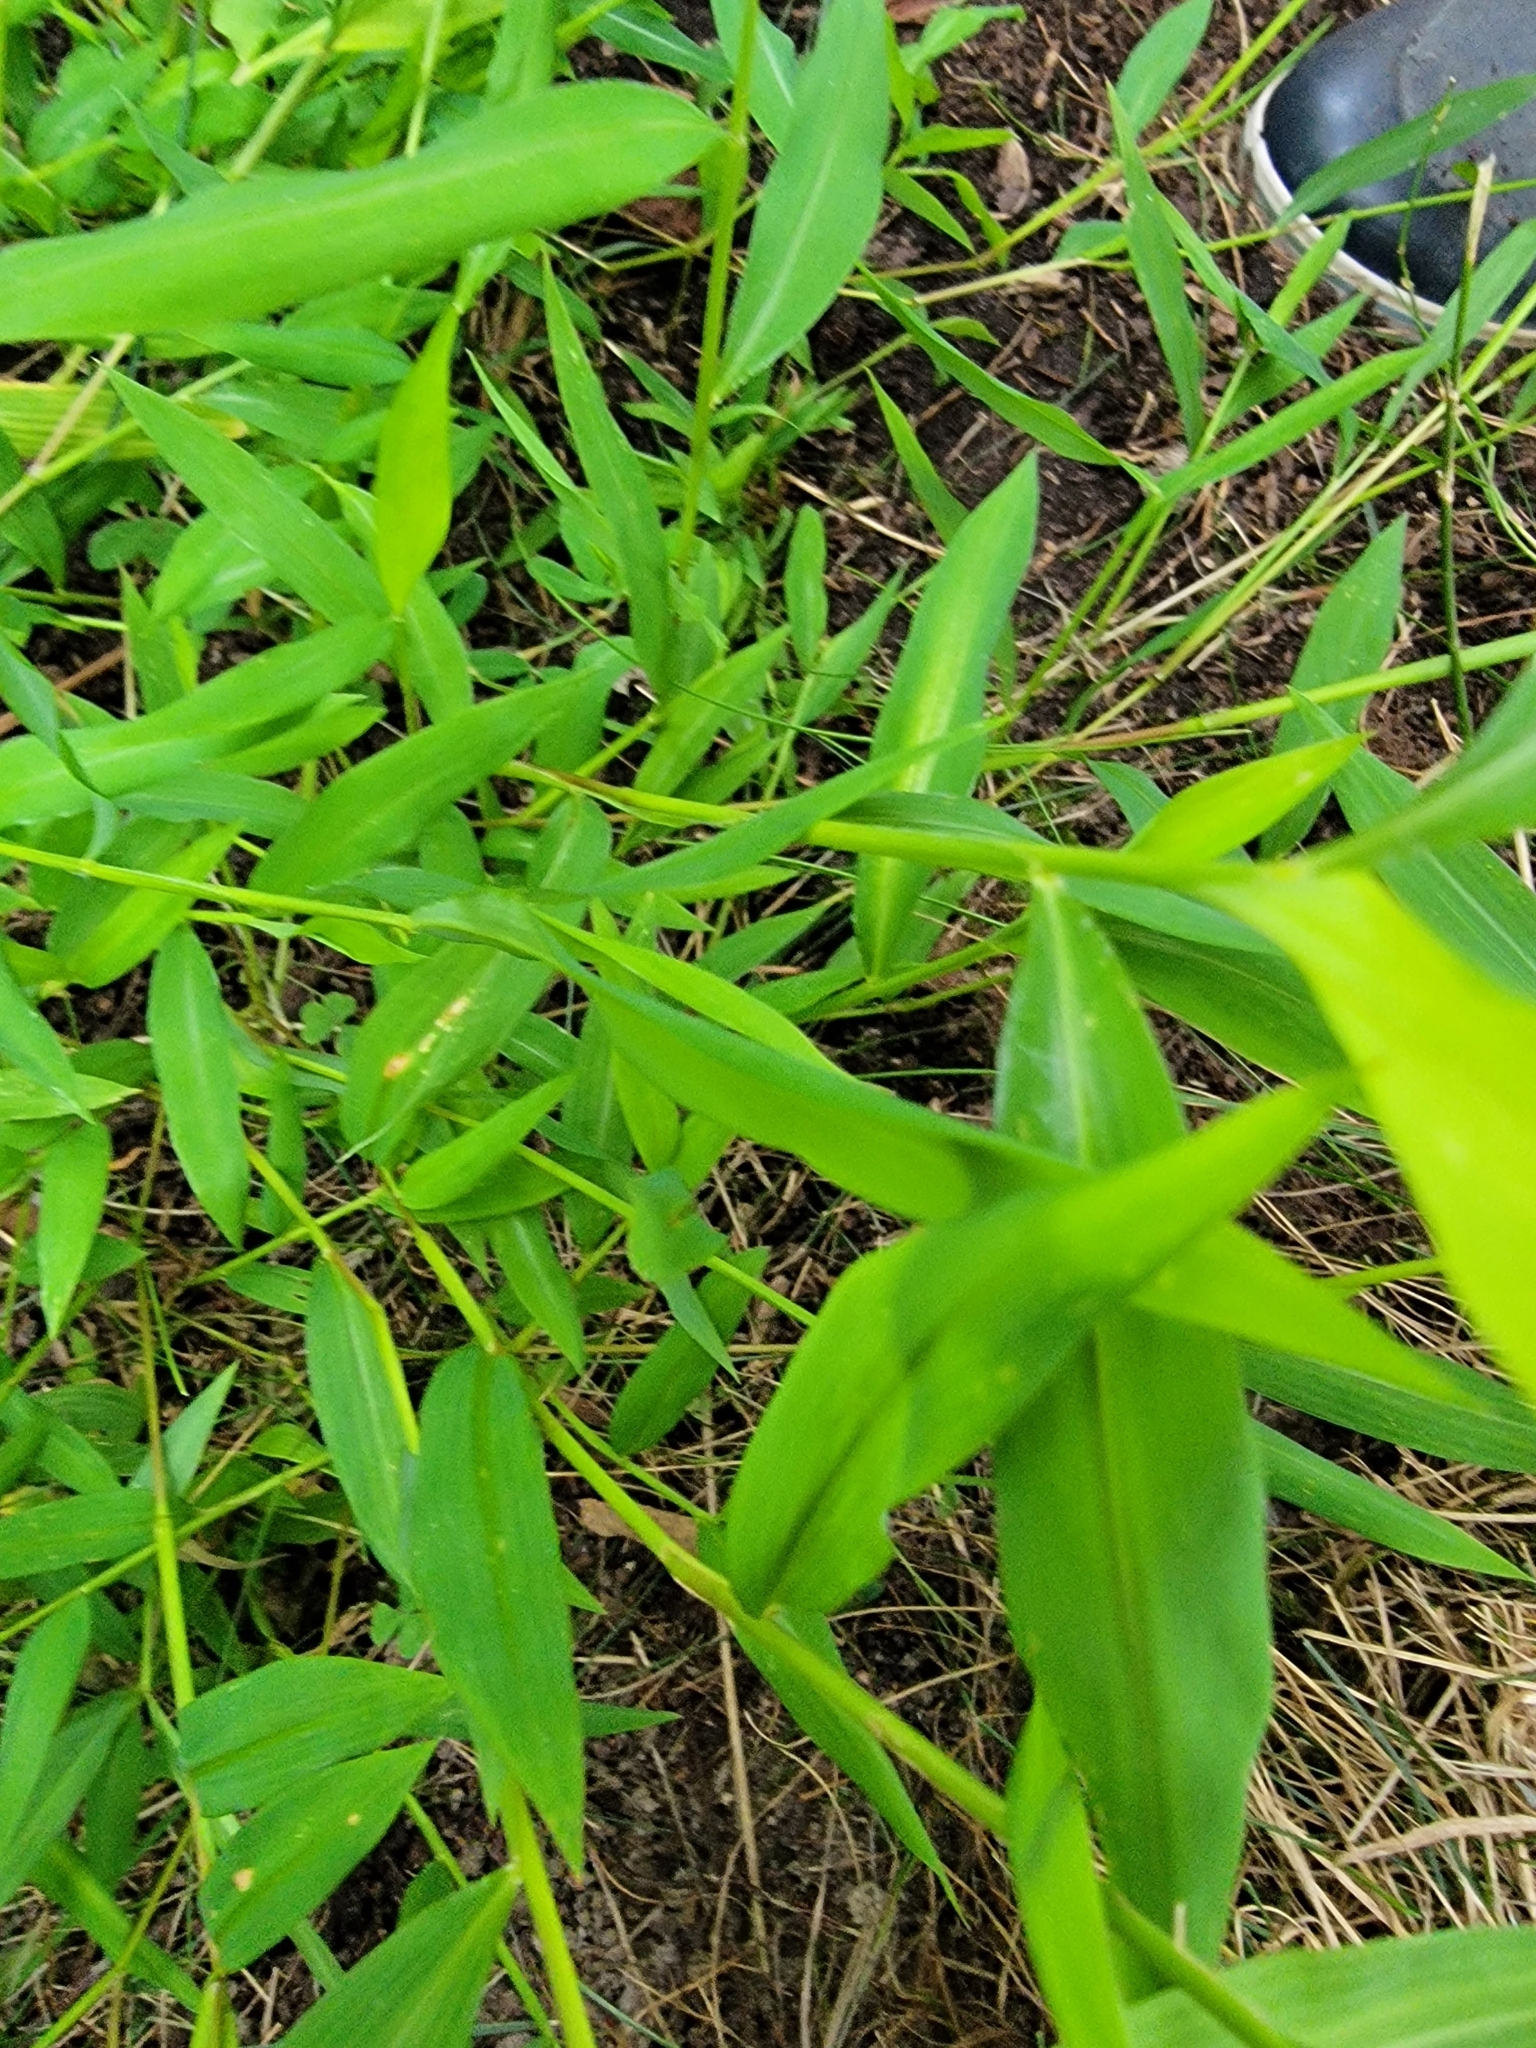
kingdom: Plantae
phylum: Tracheophyta
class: Liliopsida
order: Poales
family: Poaceae
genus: Microstegium
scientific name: Microstegium vimineum
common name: Japanese stiltgrass
